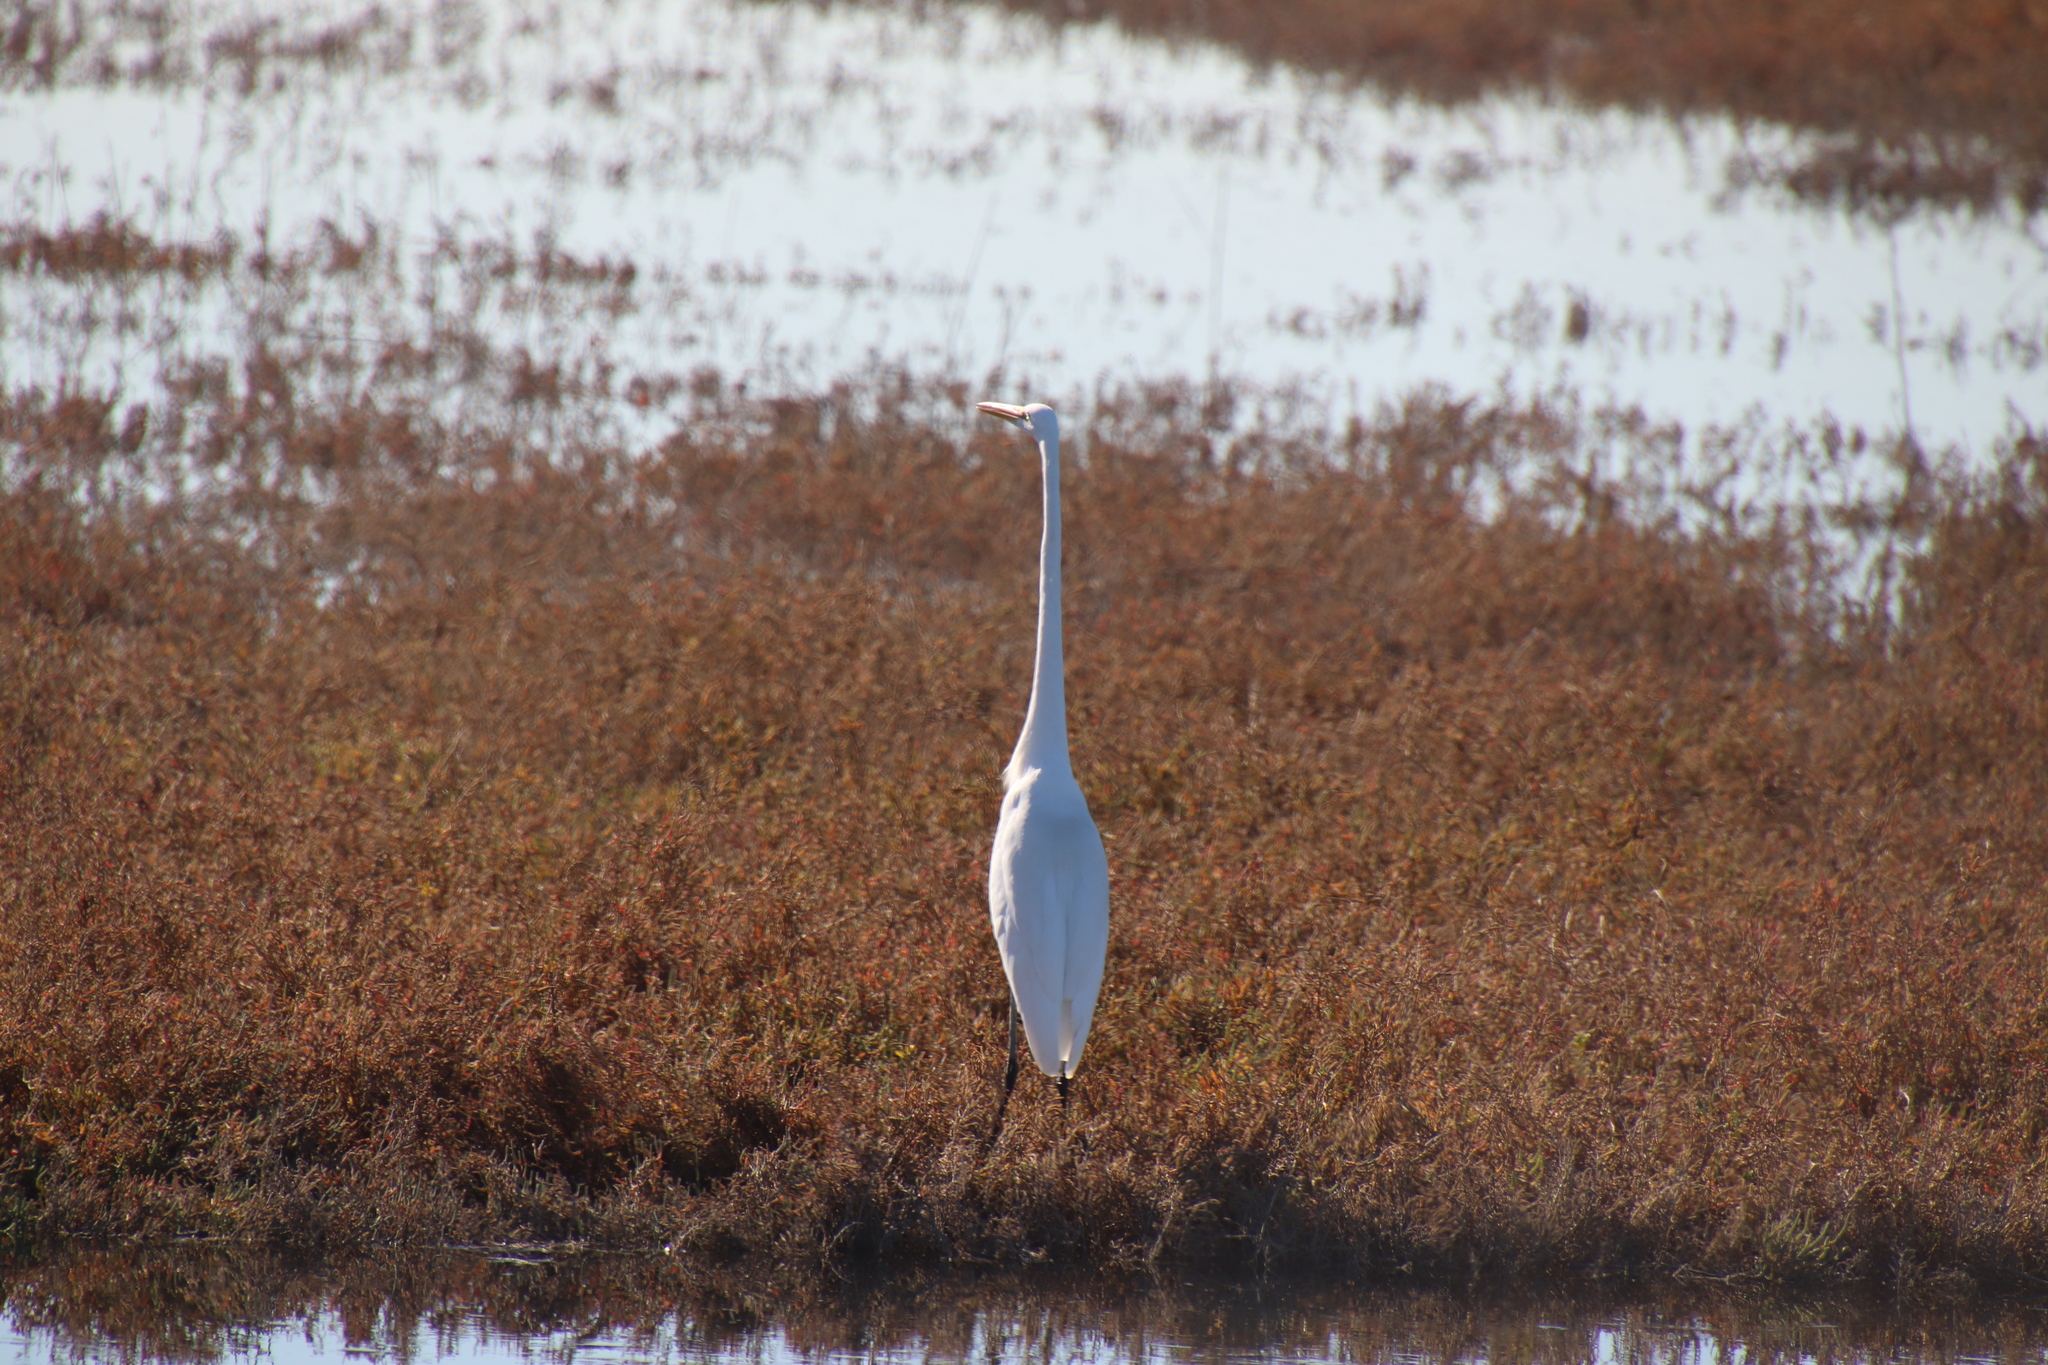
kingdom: Animalia
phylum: Chordata
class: Aves
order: Pelecaniformes
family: Ardeidae
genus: Ardea
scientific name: Ardea alba
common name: Great egret
